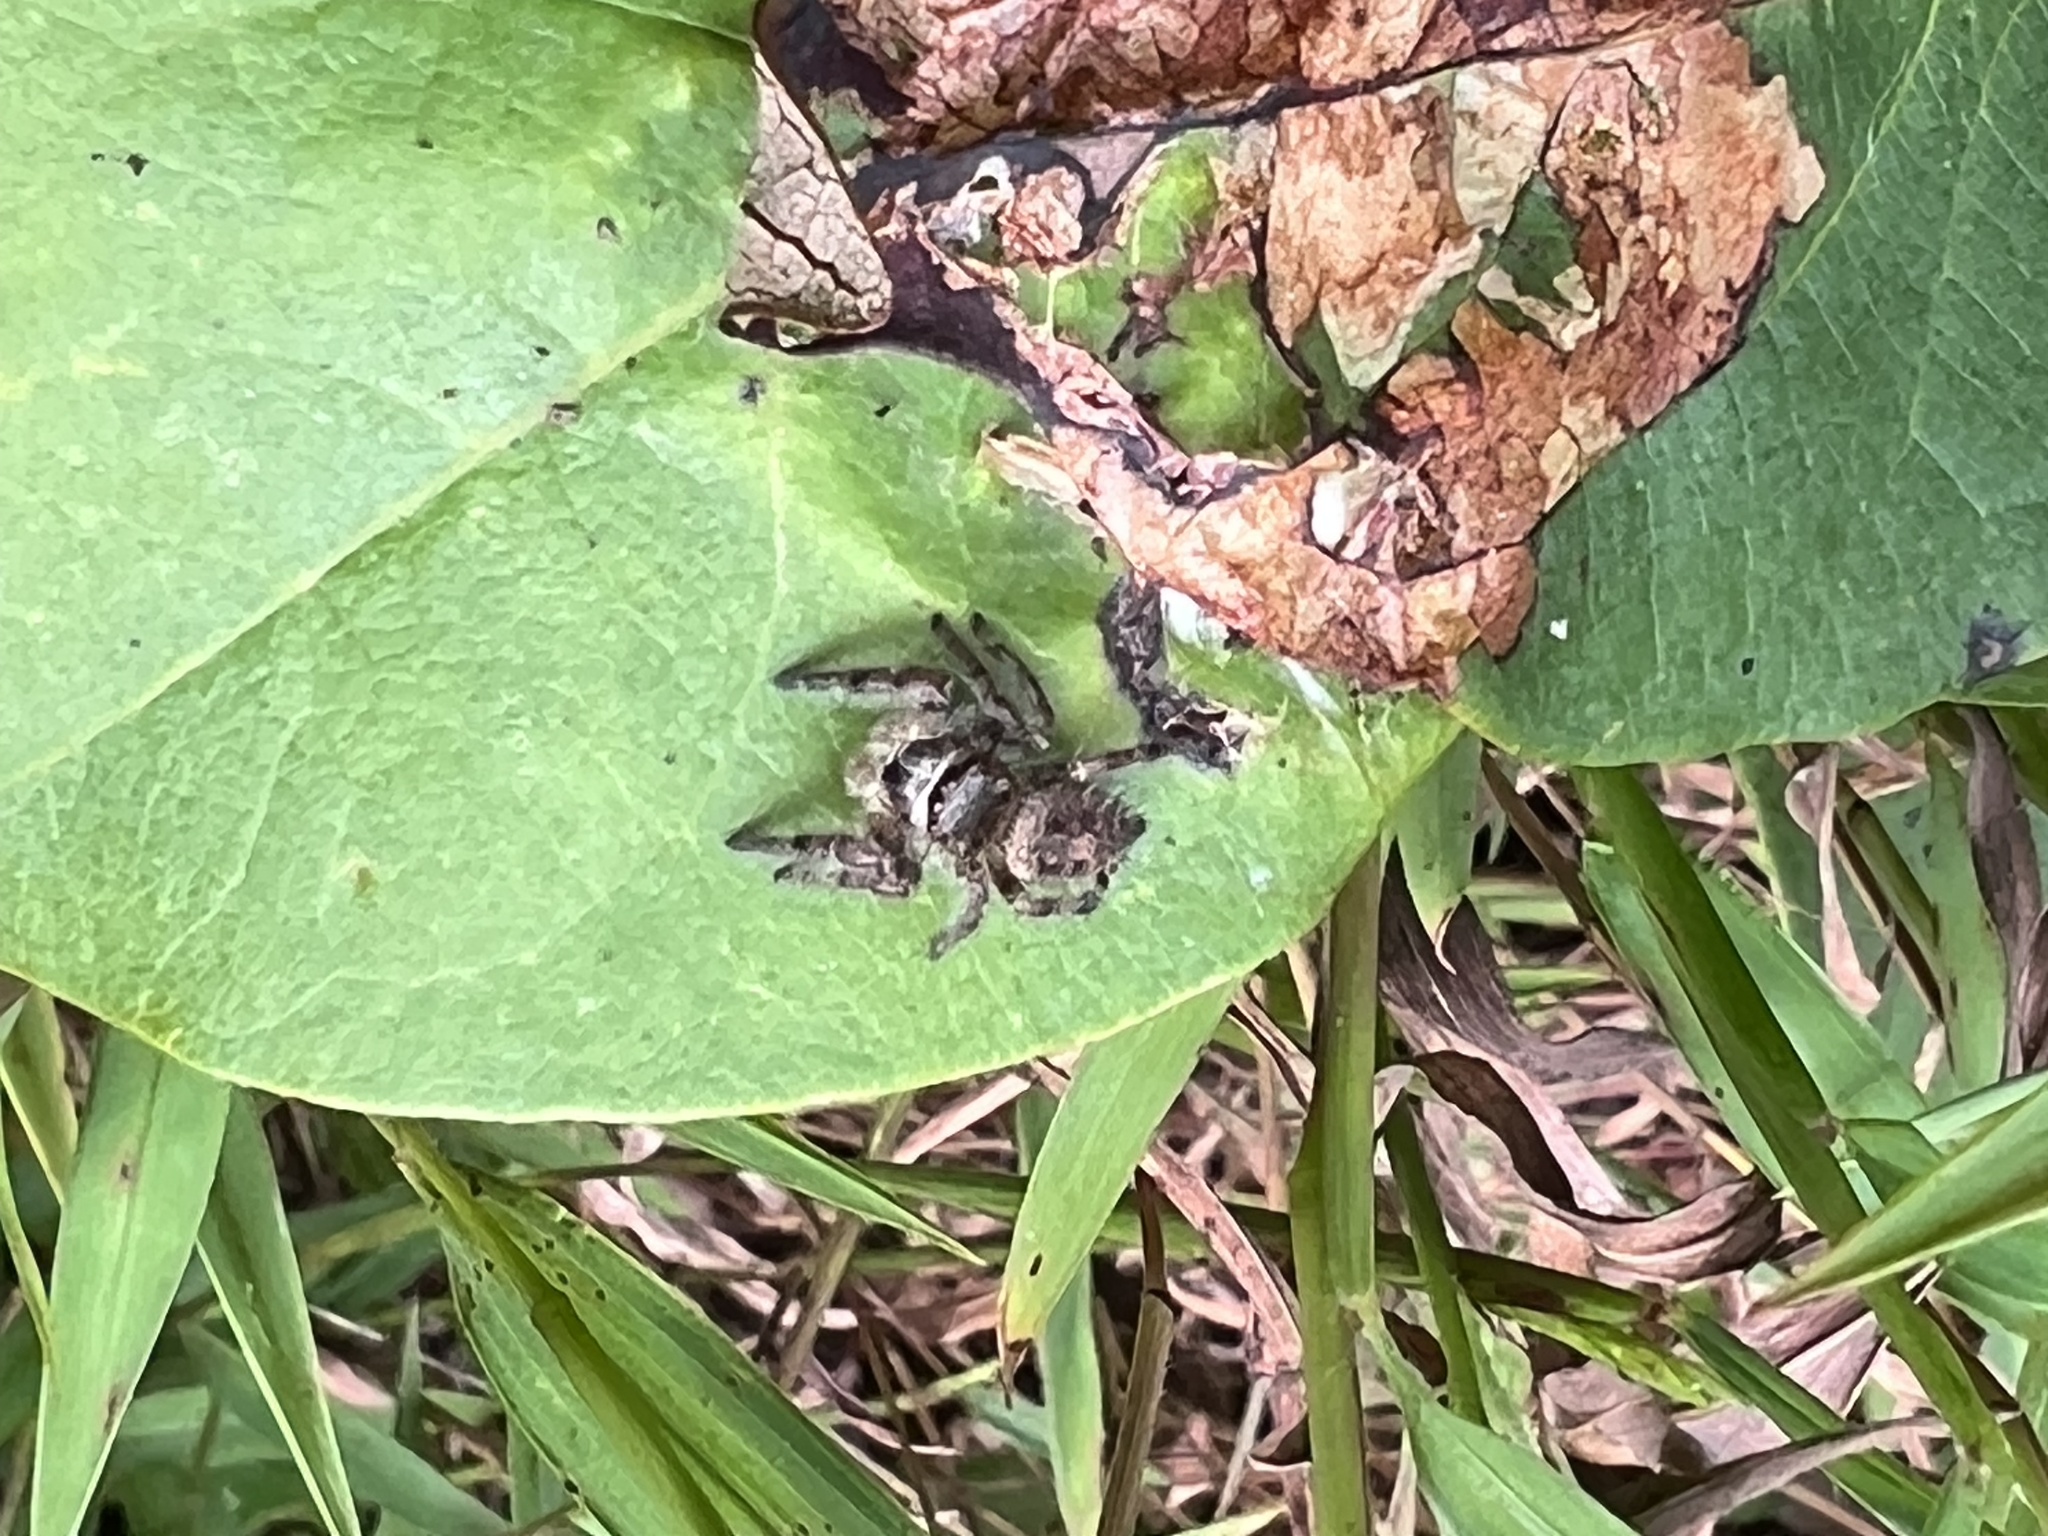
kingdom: Animalia
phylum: Arthropoda
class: Arachnida
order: Araneae
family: Salticidae
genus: Phidippus
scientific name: Phidippus princeps
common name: Grayish jumping spider
